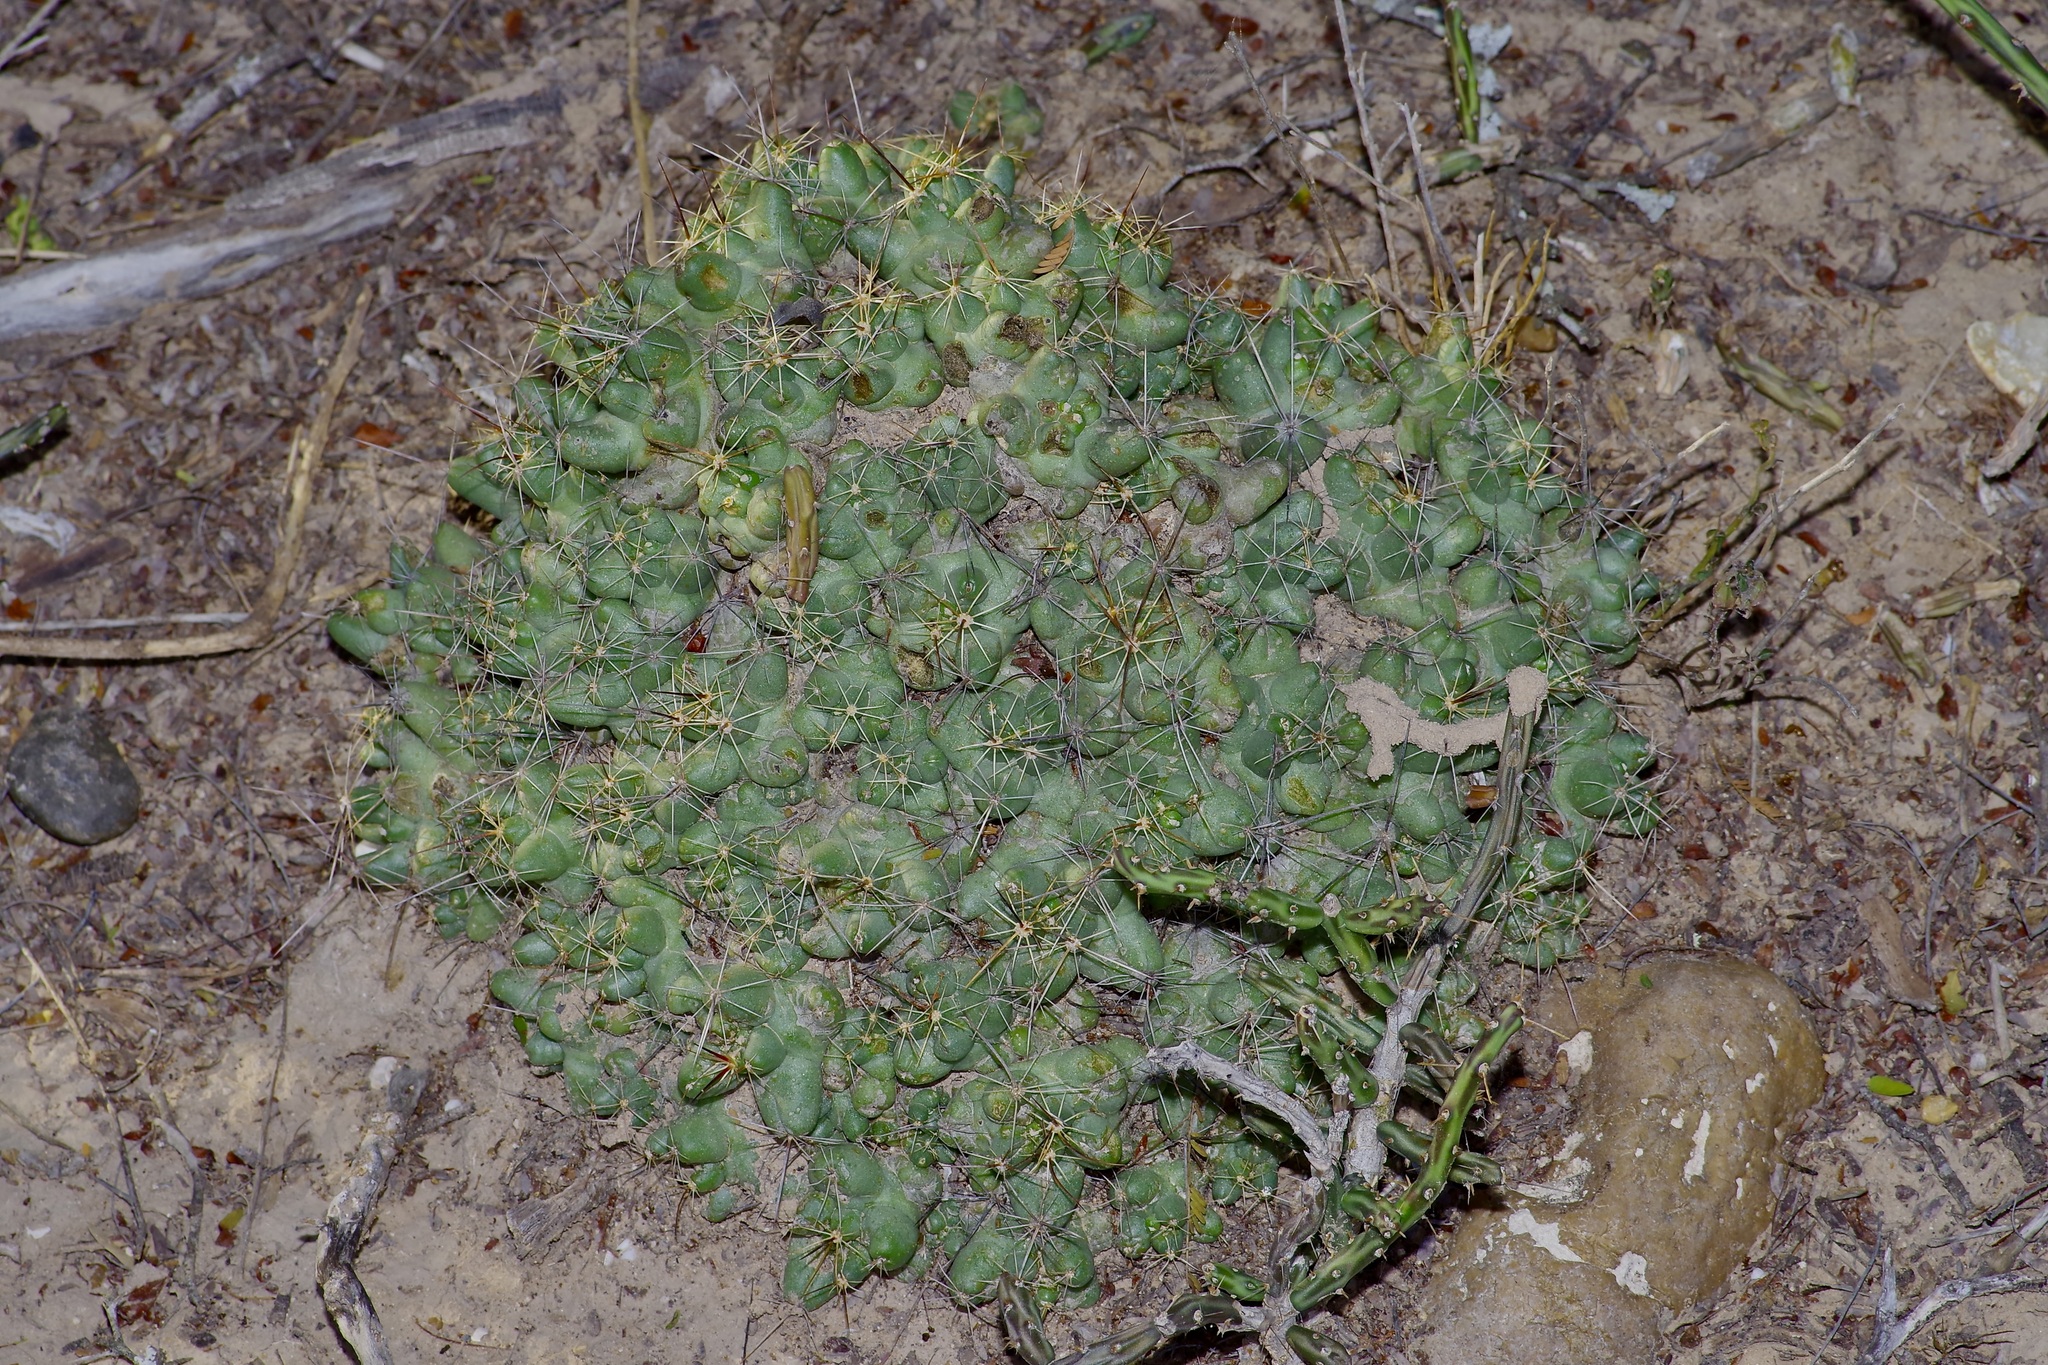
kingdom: Plantae
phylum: Tracheophyta
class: Magnoliopsida
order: Caryophyllales
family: Cactaceae
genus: Pelecyphora
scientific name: Pelecyphora macromeris
